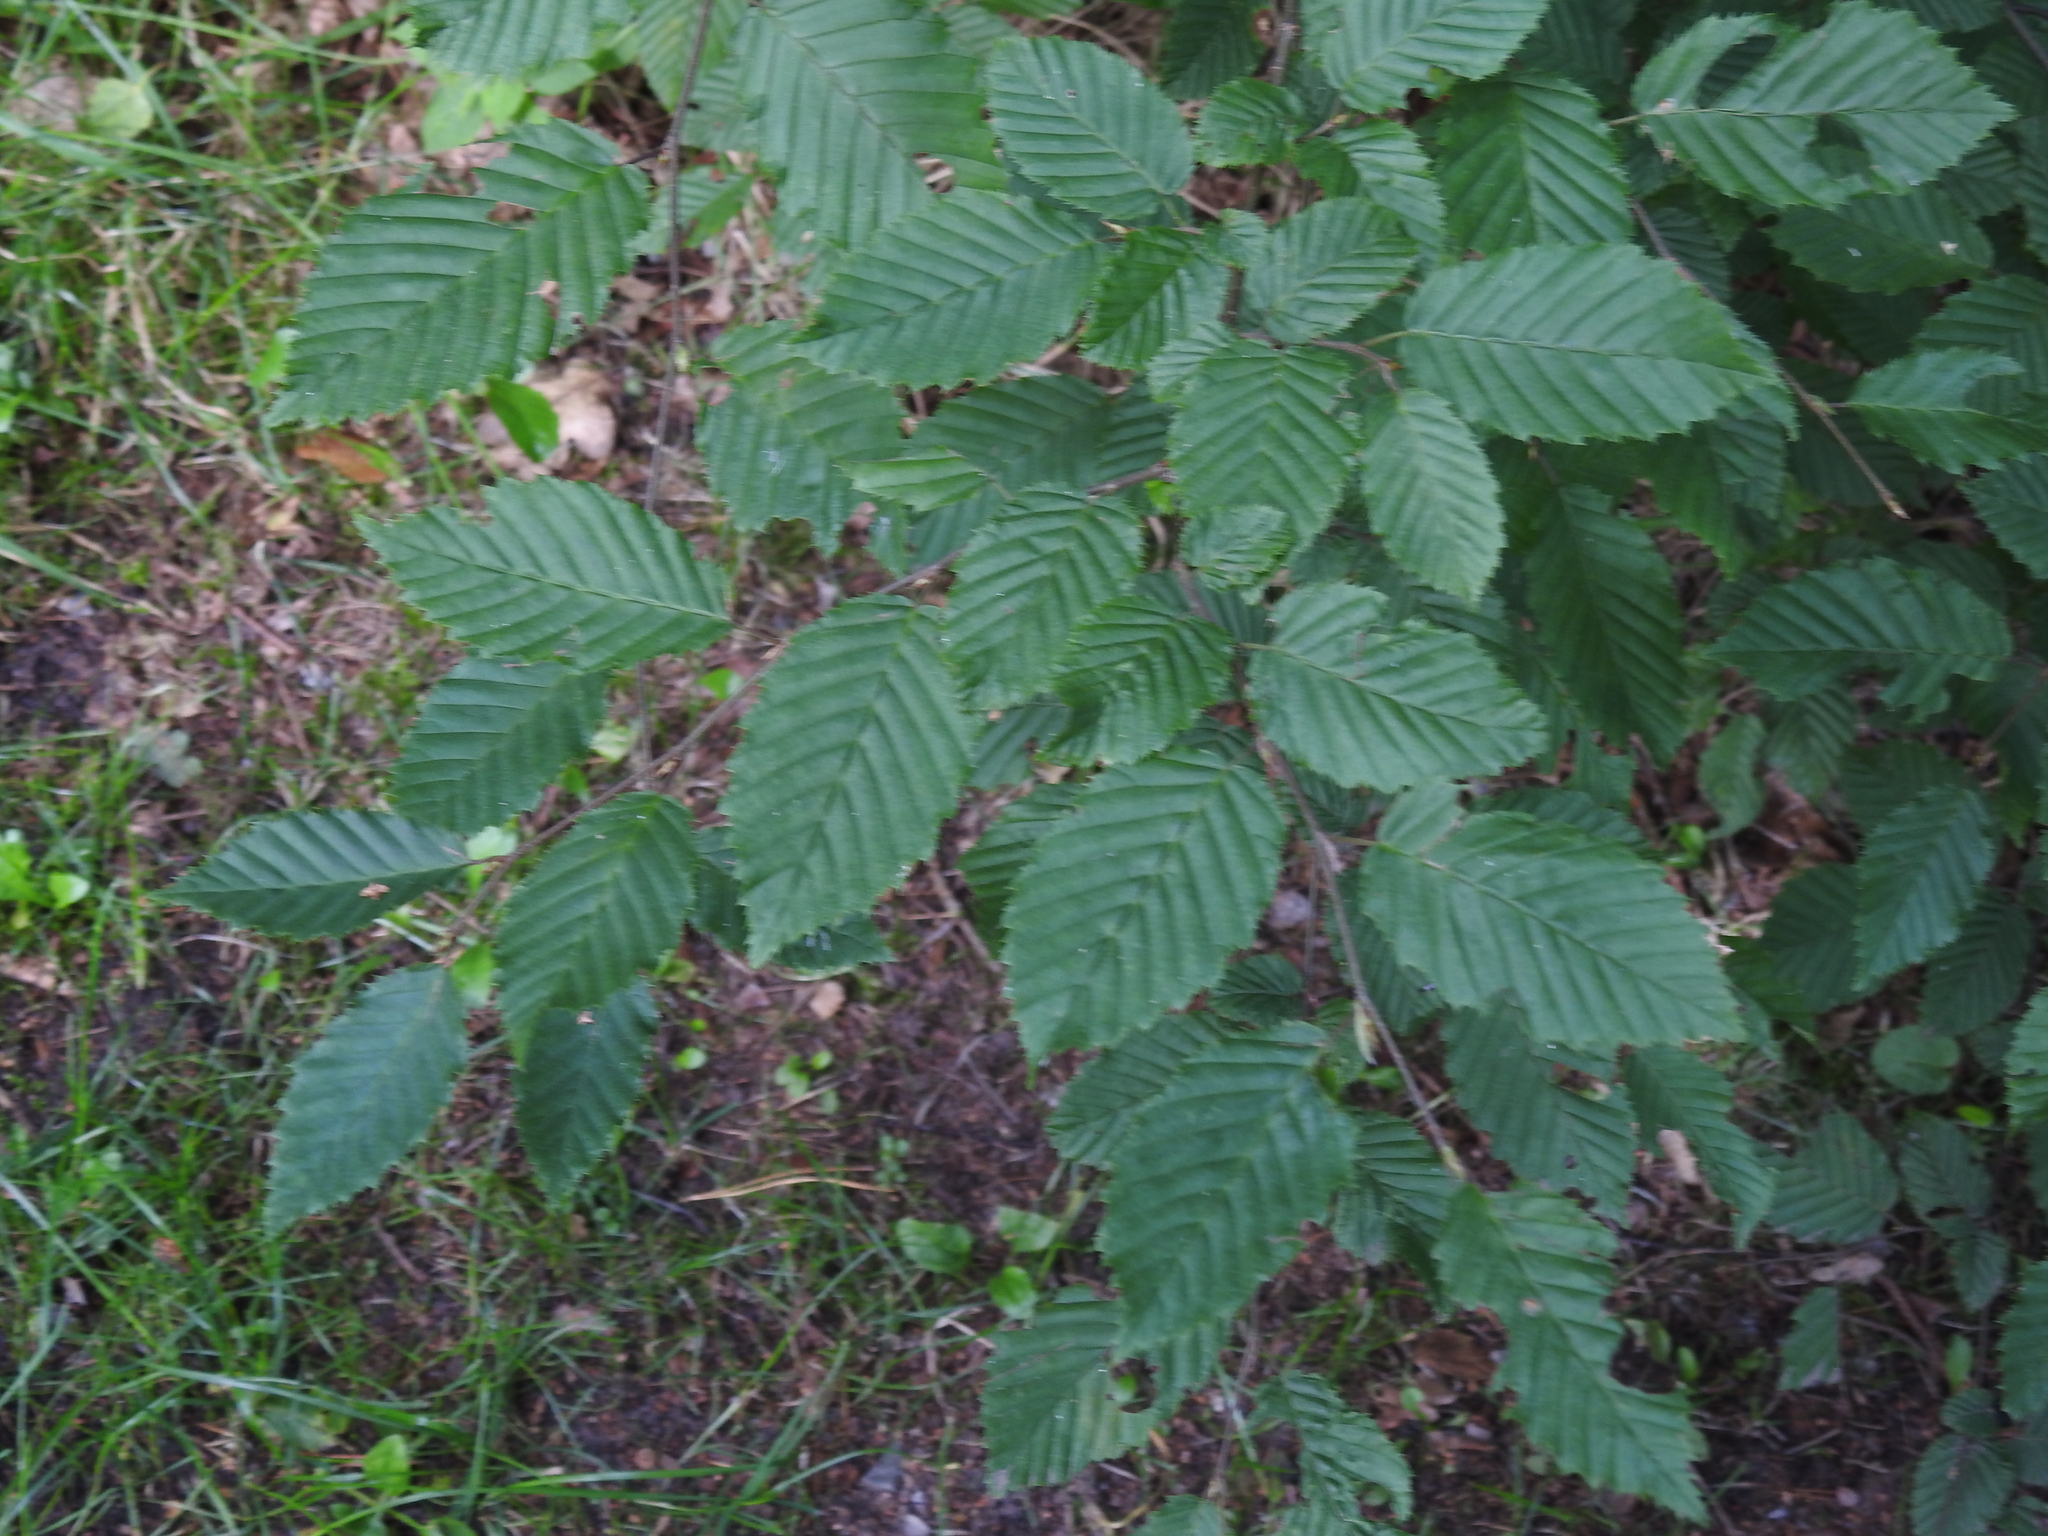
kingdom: Plantae
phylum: Tracheophyta
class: Magnoliopsida
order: Fagales
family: Betulaceae
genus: Carpinus
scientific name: Carpinus betulus
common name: Hornbeam
